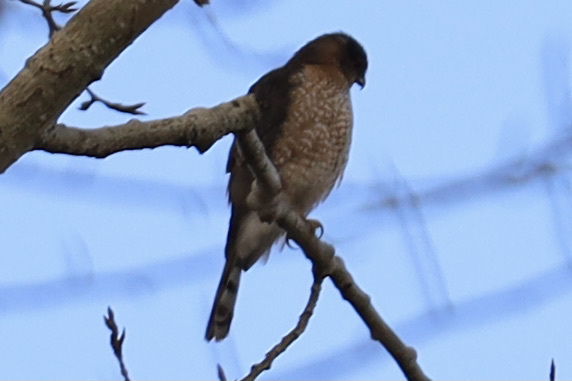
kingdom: Animalia
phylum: Chordata
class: Aves
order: Accipitriformes
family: Accipitridae
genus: Accipiter
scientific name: Accipiter cooperii
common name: Cooper's hawk
